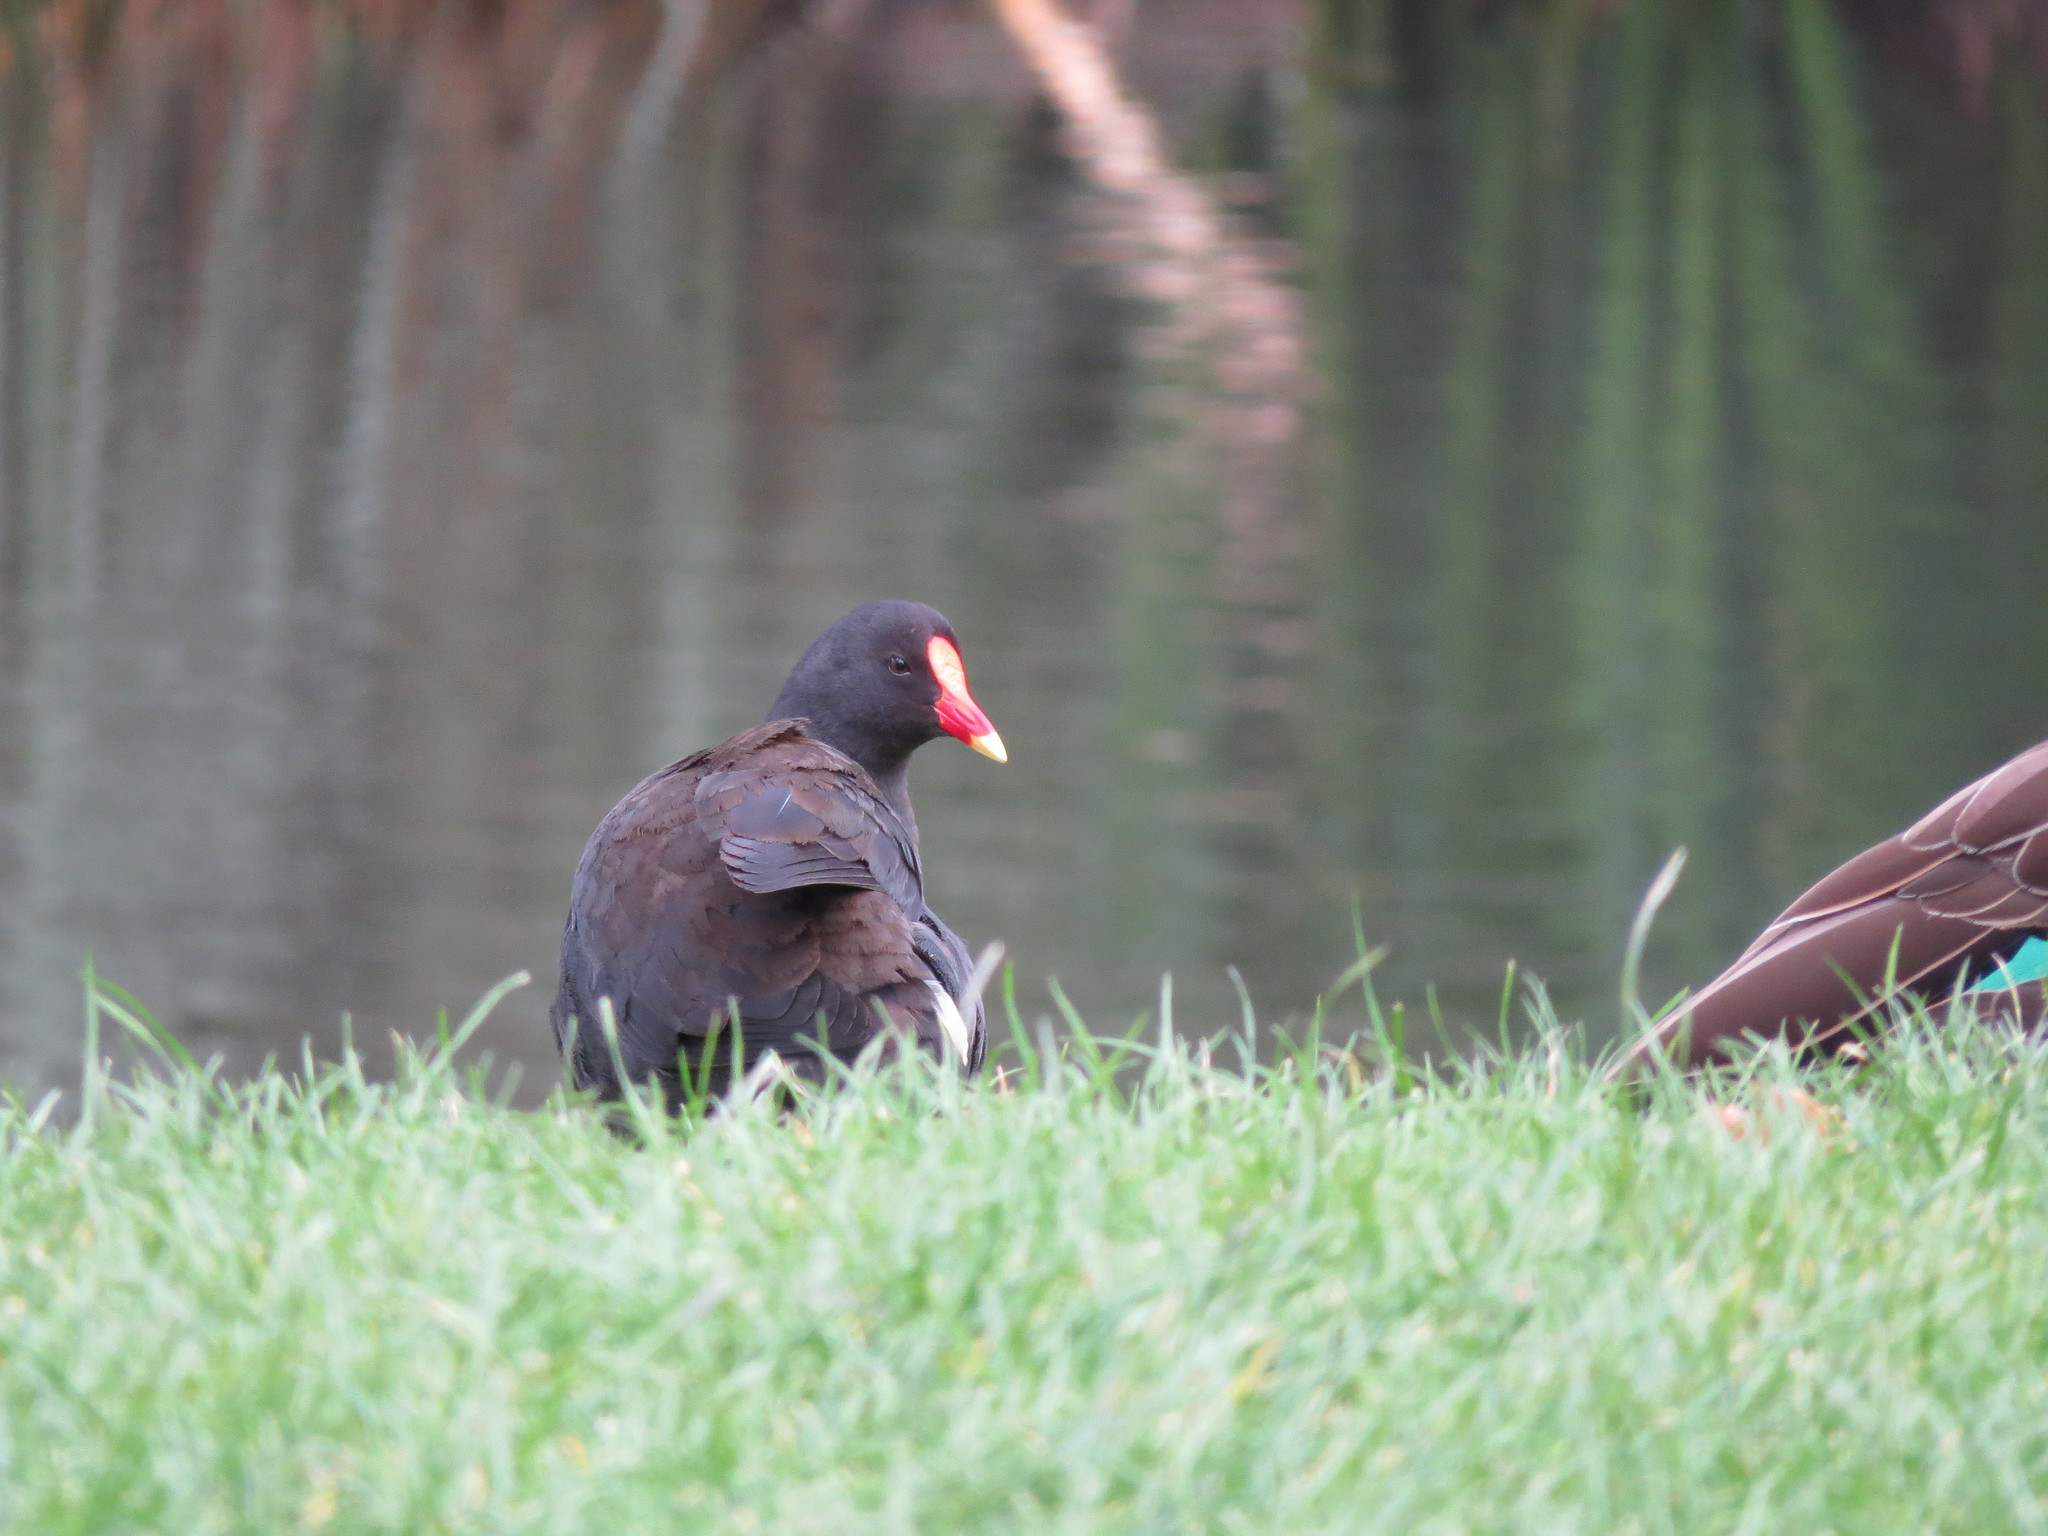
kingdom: Animalia
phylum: Chordata
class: Aves
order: Gruiformes
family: Rallidae
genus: Gallinula
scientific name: Gallinula tenebrosa
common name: Dusky moorhen
